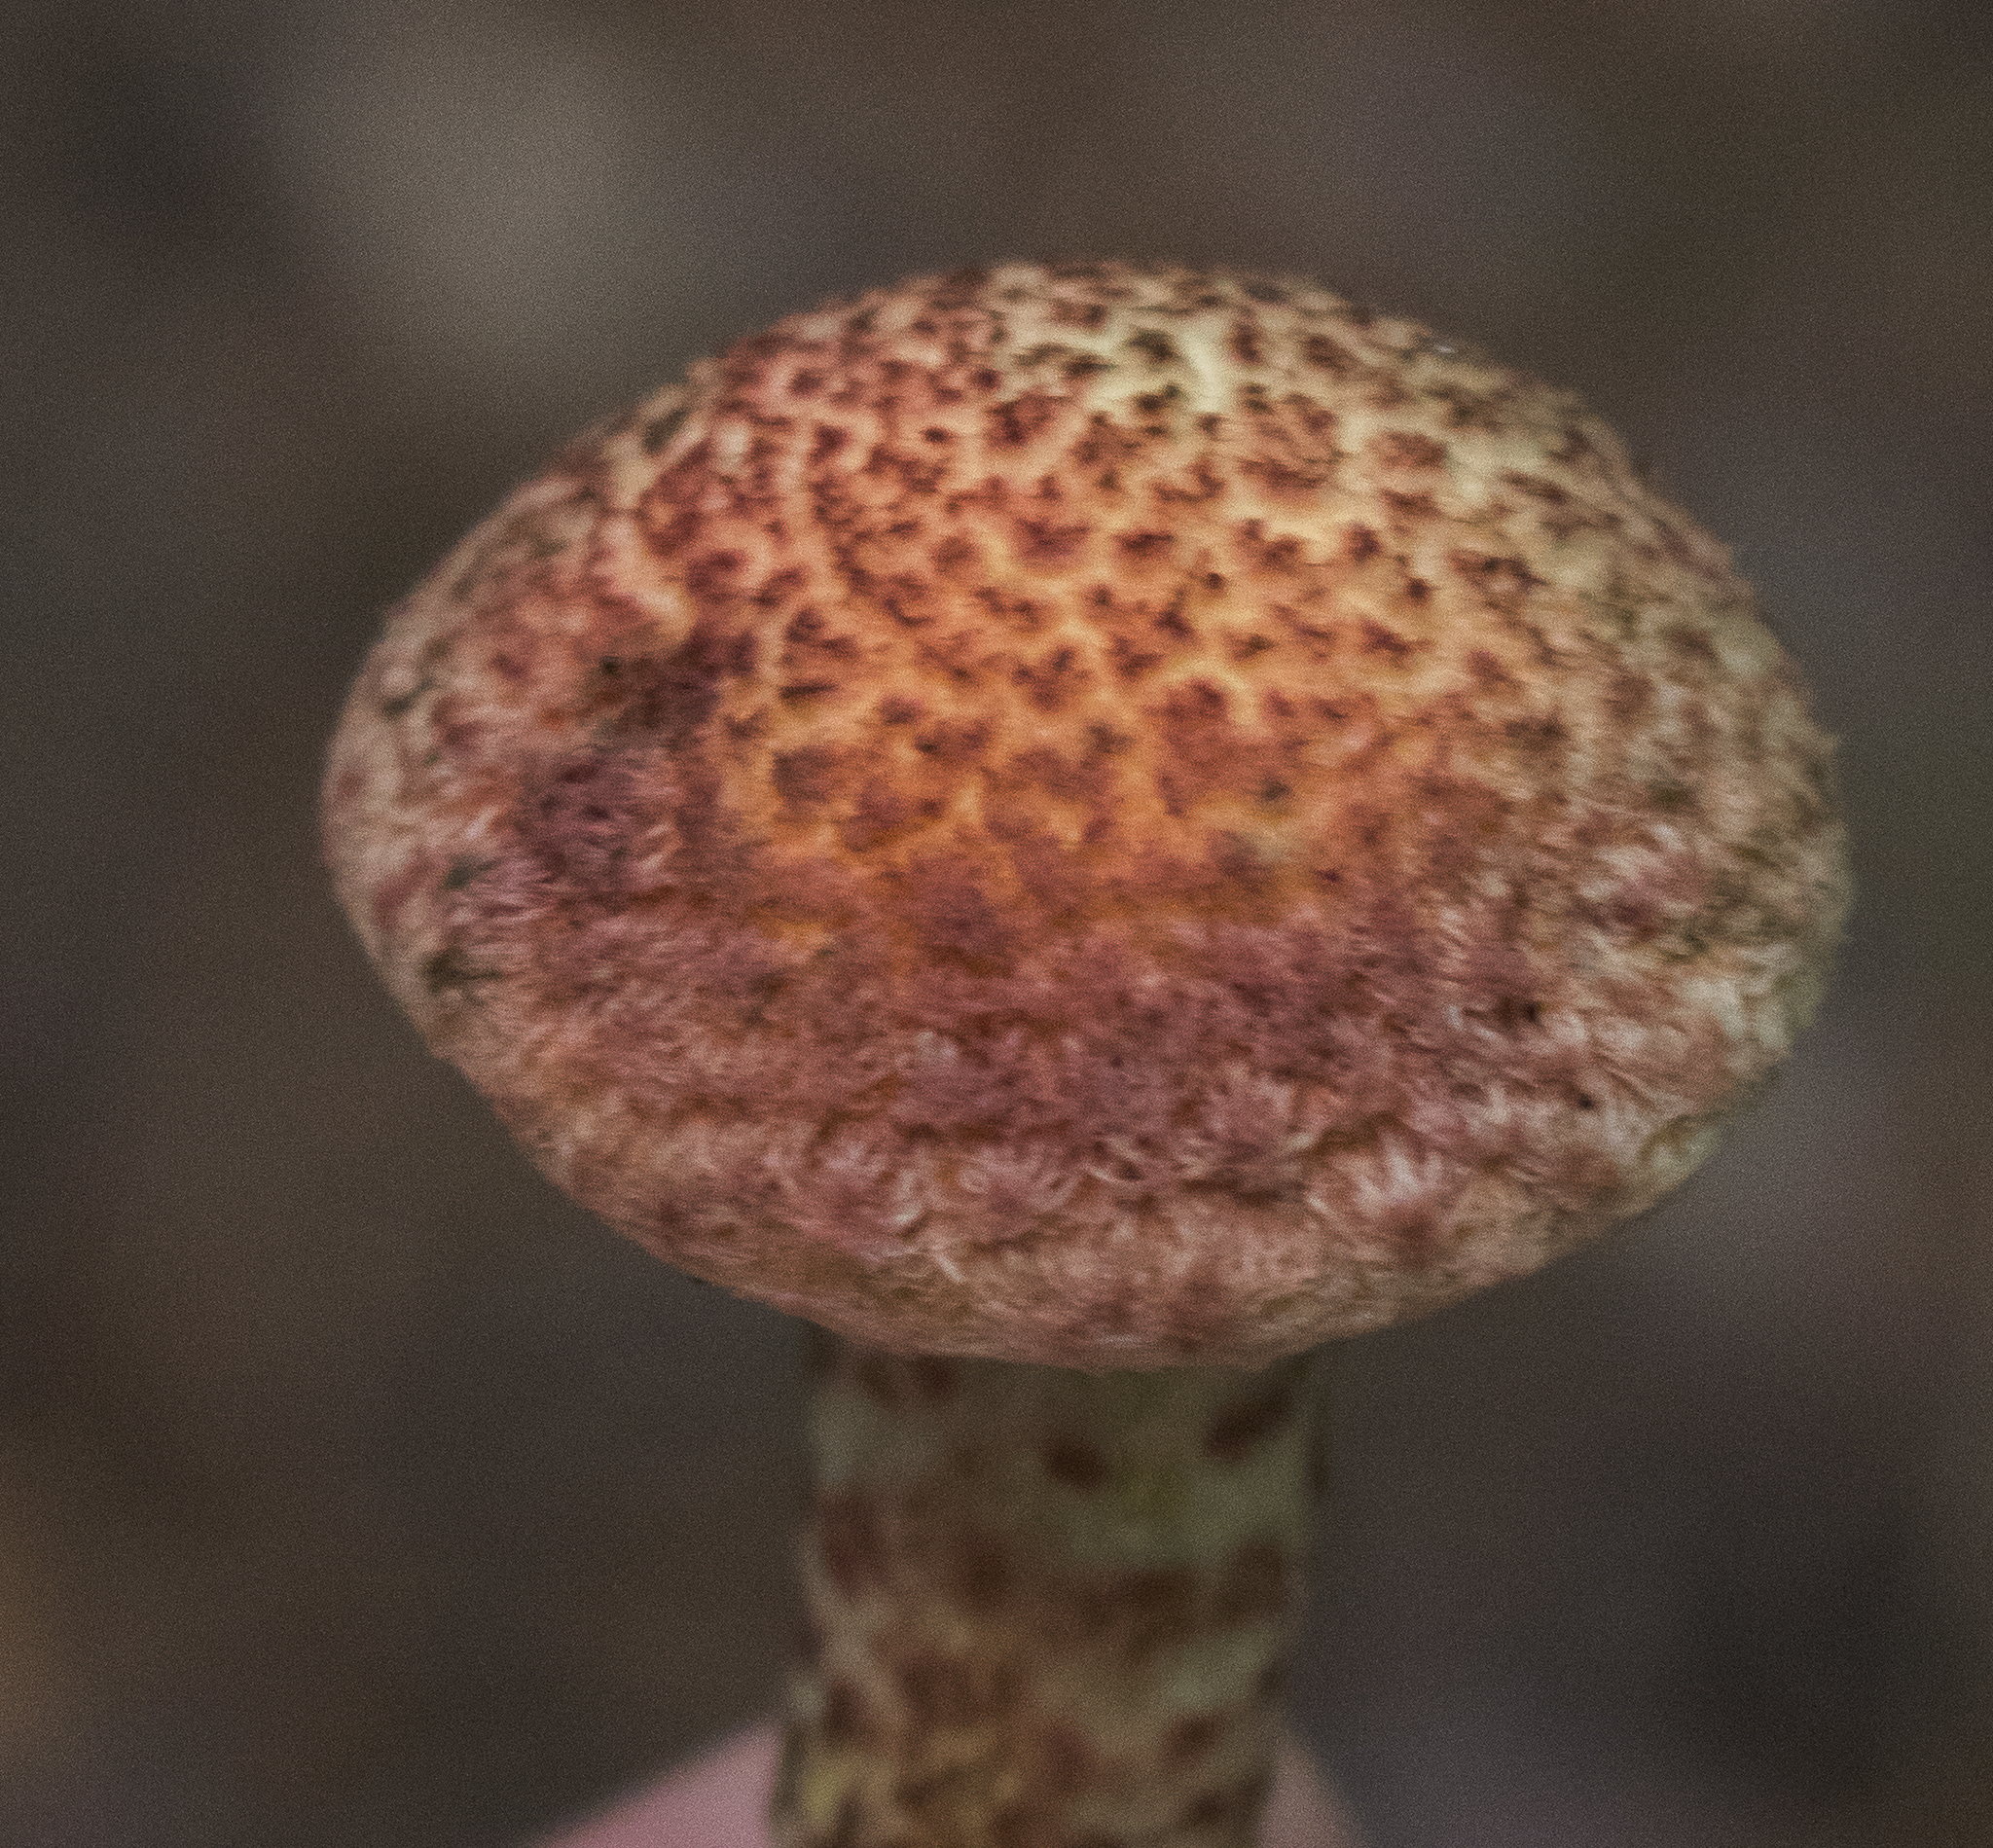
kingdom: Fungi
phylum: Basidiomycota
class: Agaricomycetes
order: Boletales
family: Suillaceae
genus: Suillus
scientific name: Suillus spraguei
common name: Painted suillus
